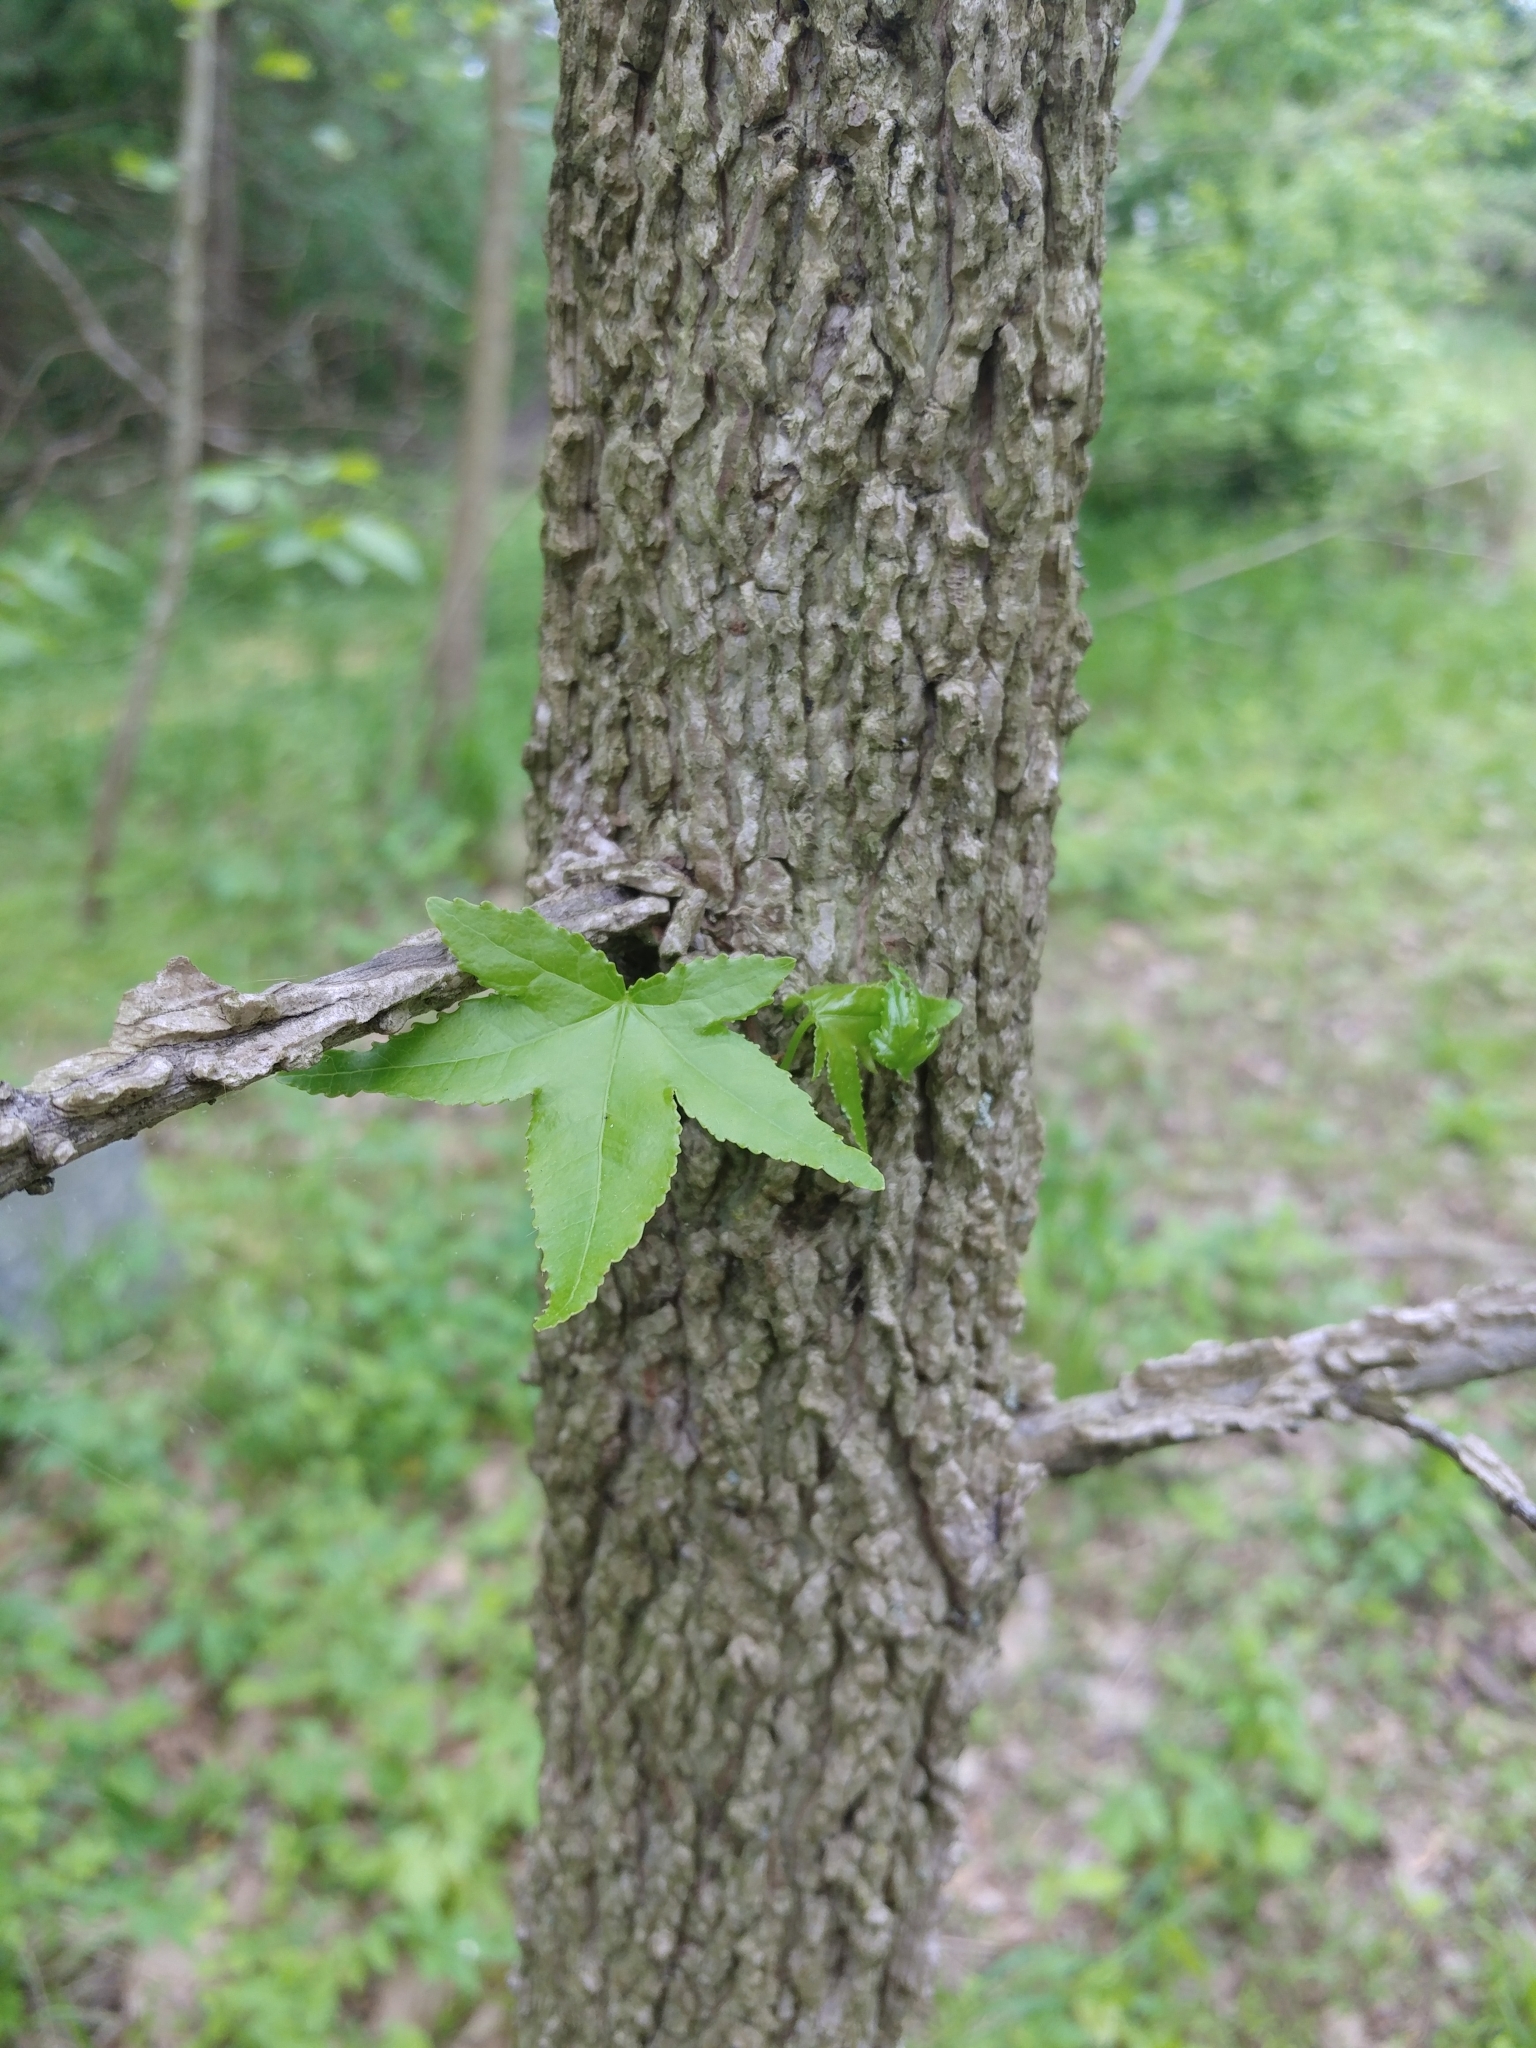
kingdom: Plantae
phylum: Tracheophyta
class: Magnoliopsida
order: Saxifragales
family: Altingiaceae
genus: Liquidambar
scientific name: Liquidambar styraciflua
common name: Sweet gum
